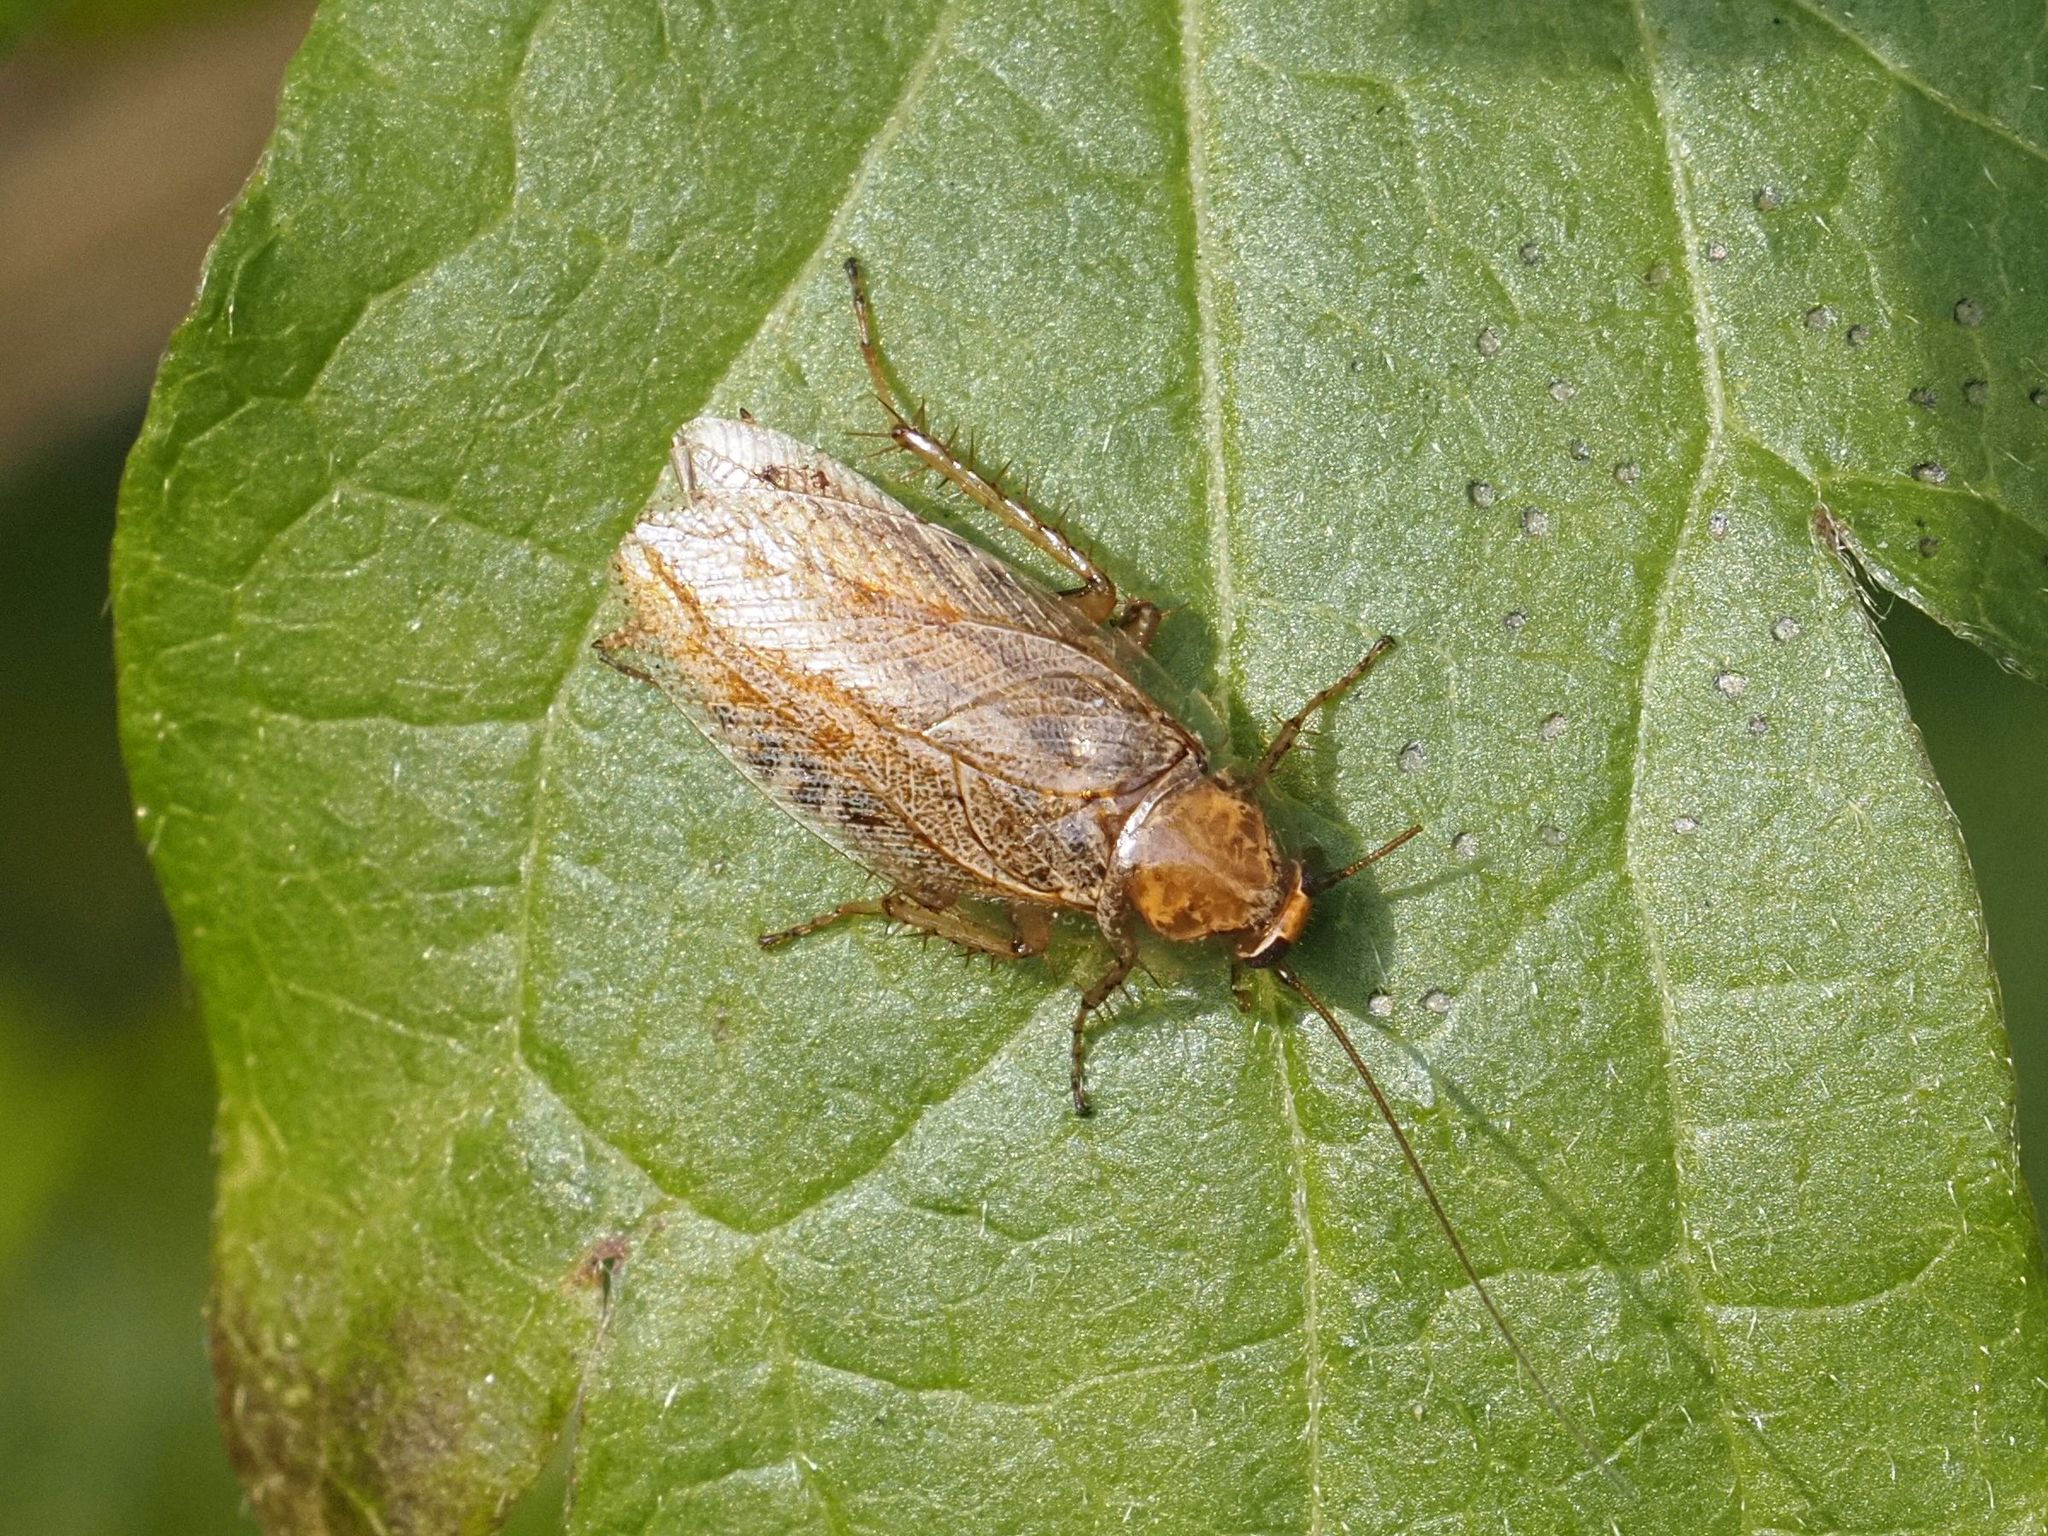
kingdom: Animalia
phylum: Arthropoda
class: Insecta
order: Blattodea
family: Ectobiidae
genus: Ectobius
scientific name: Ectobius vittiventris
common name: Garden cockroach
